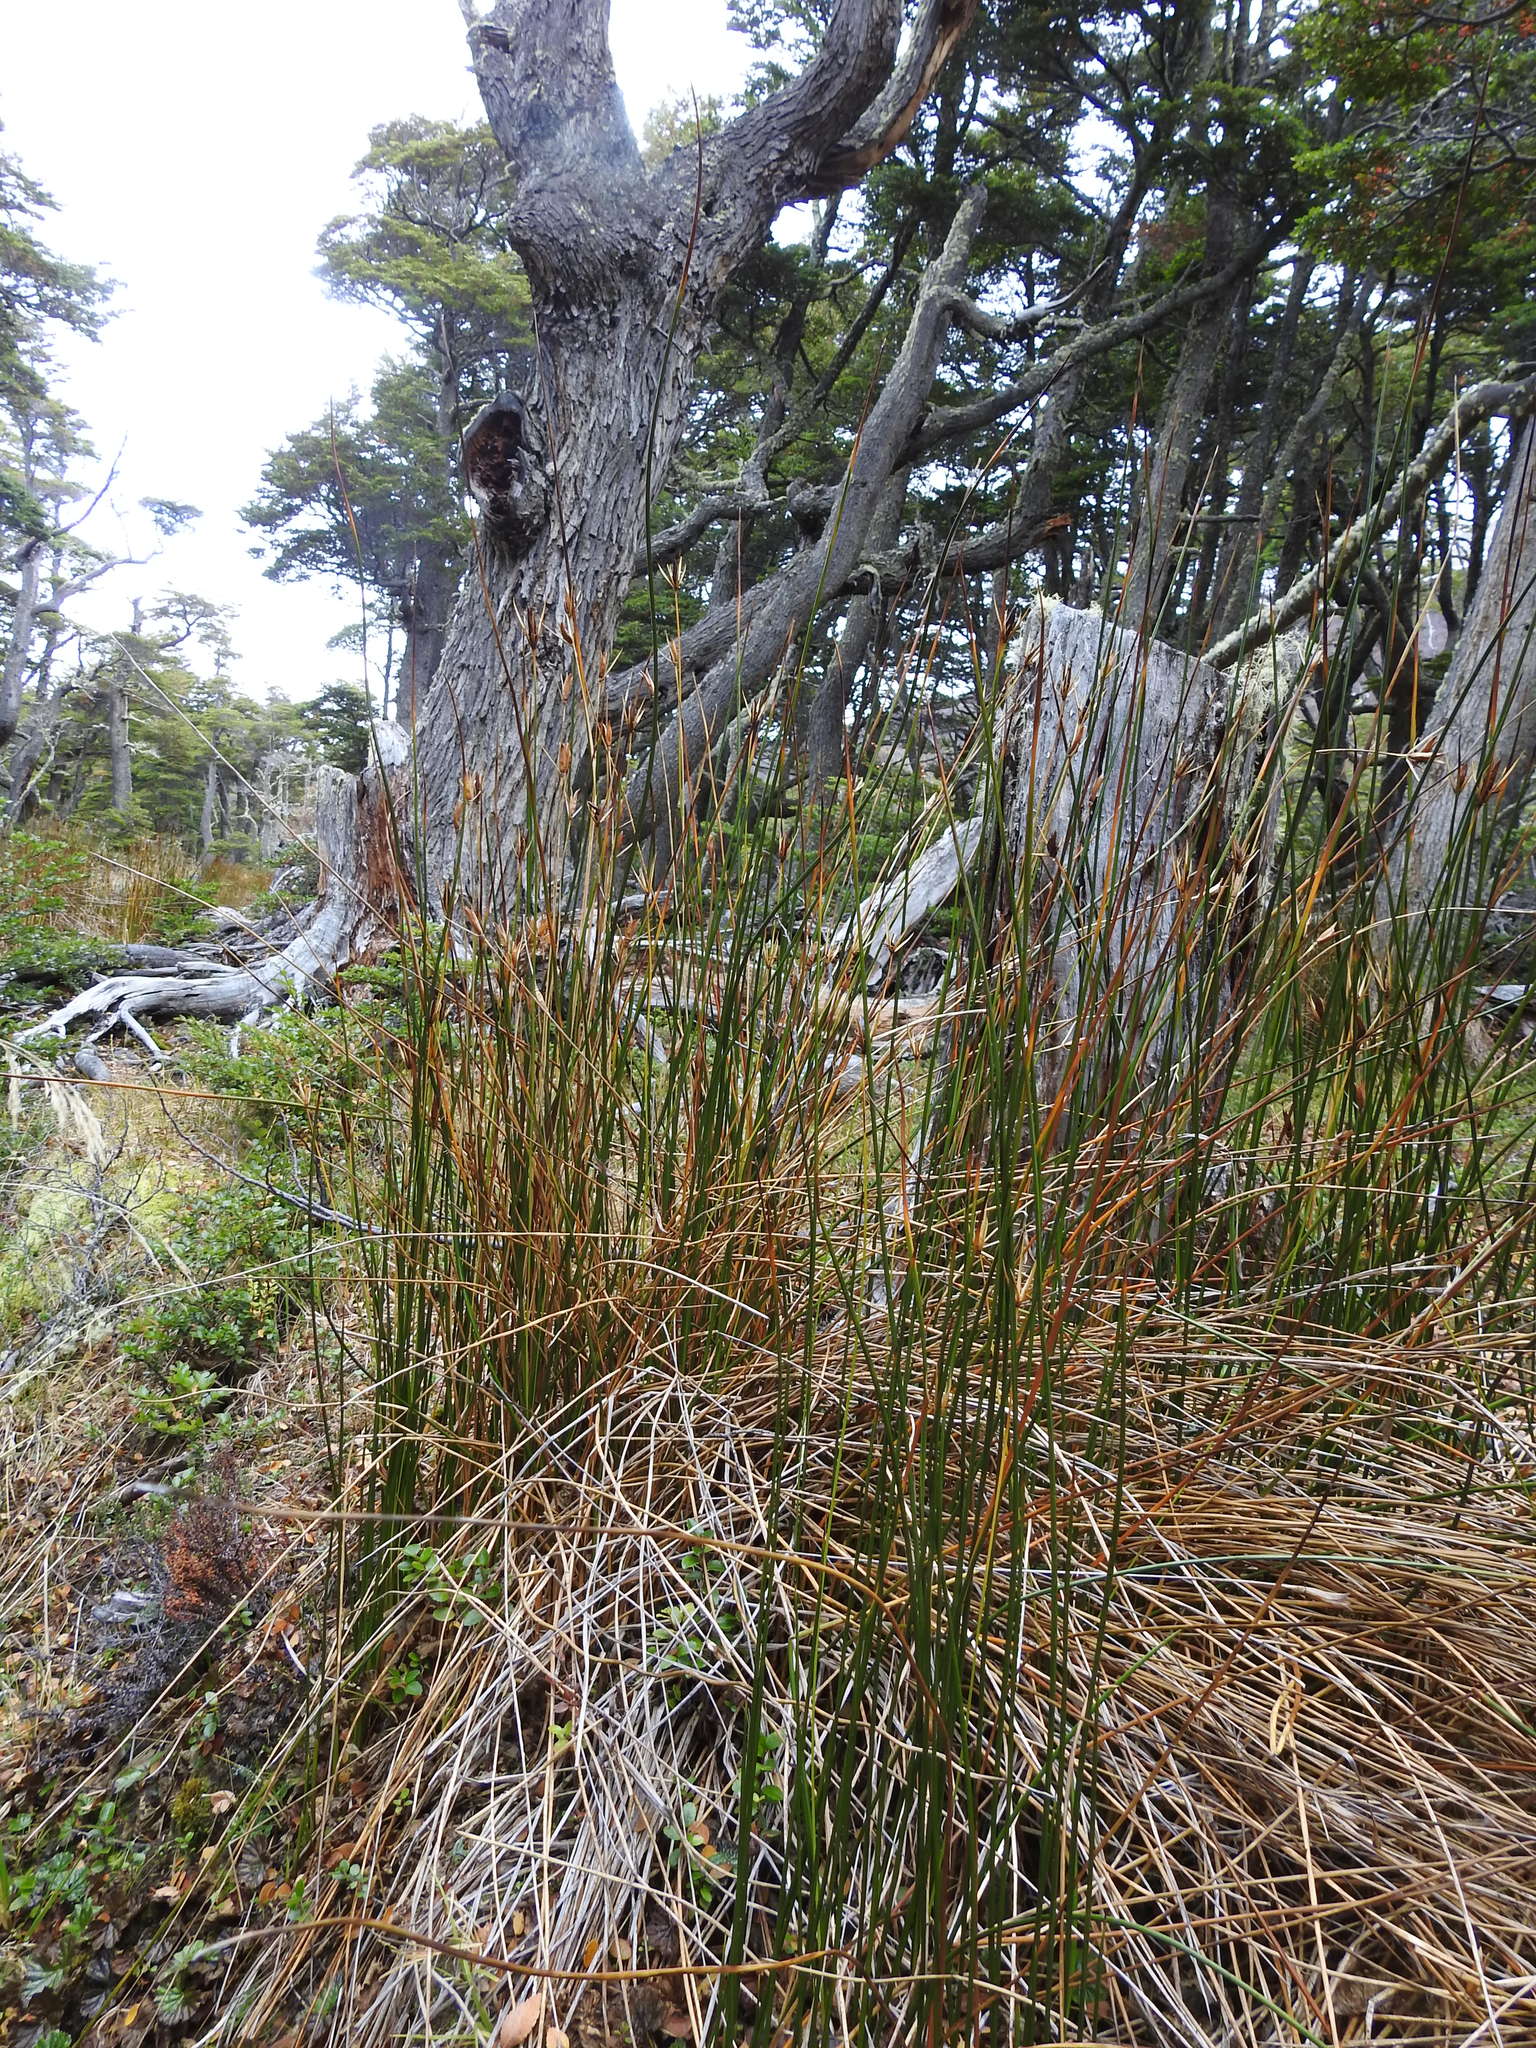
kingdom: Plantae
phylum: Tracheophyta
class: Liliopsida
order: Poales
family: Juncaceae
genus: Marsippospermum
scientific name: Marsippospermum grandiflorum
